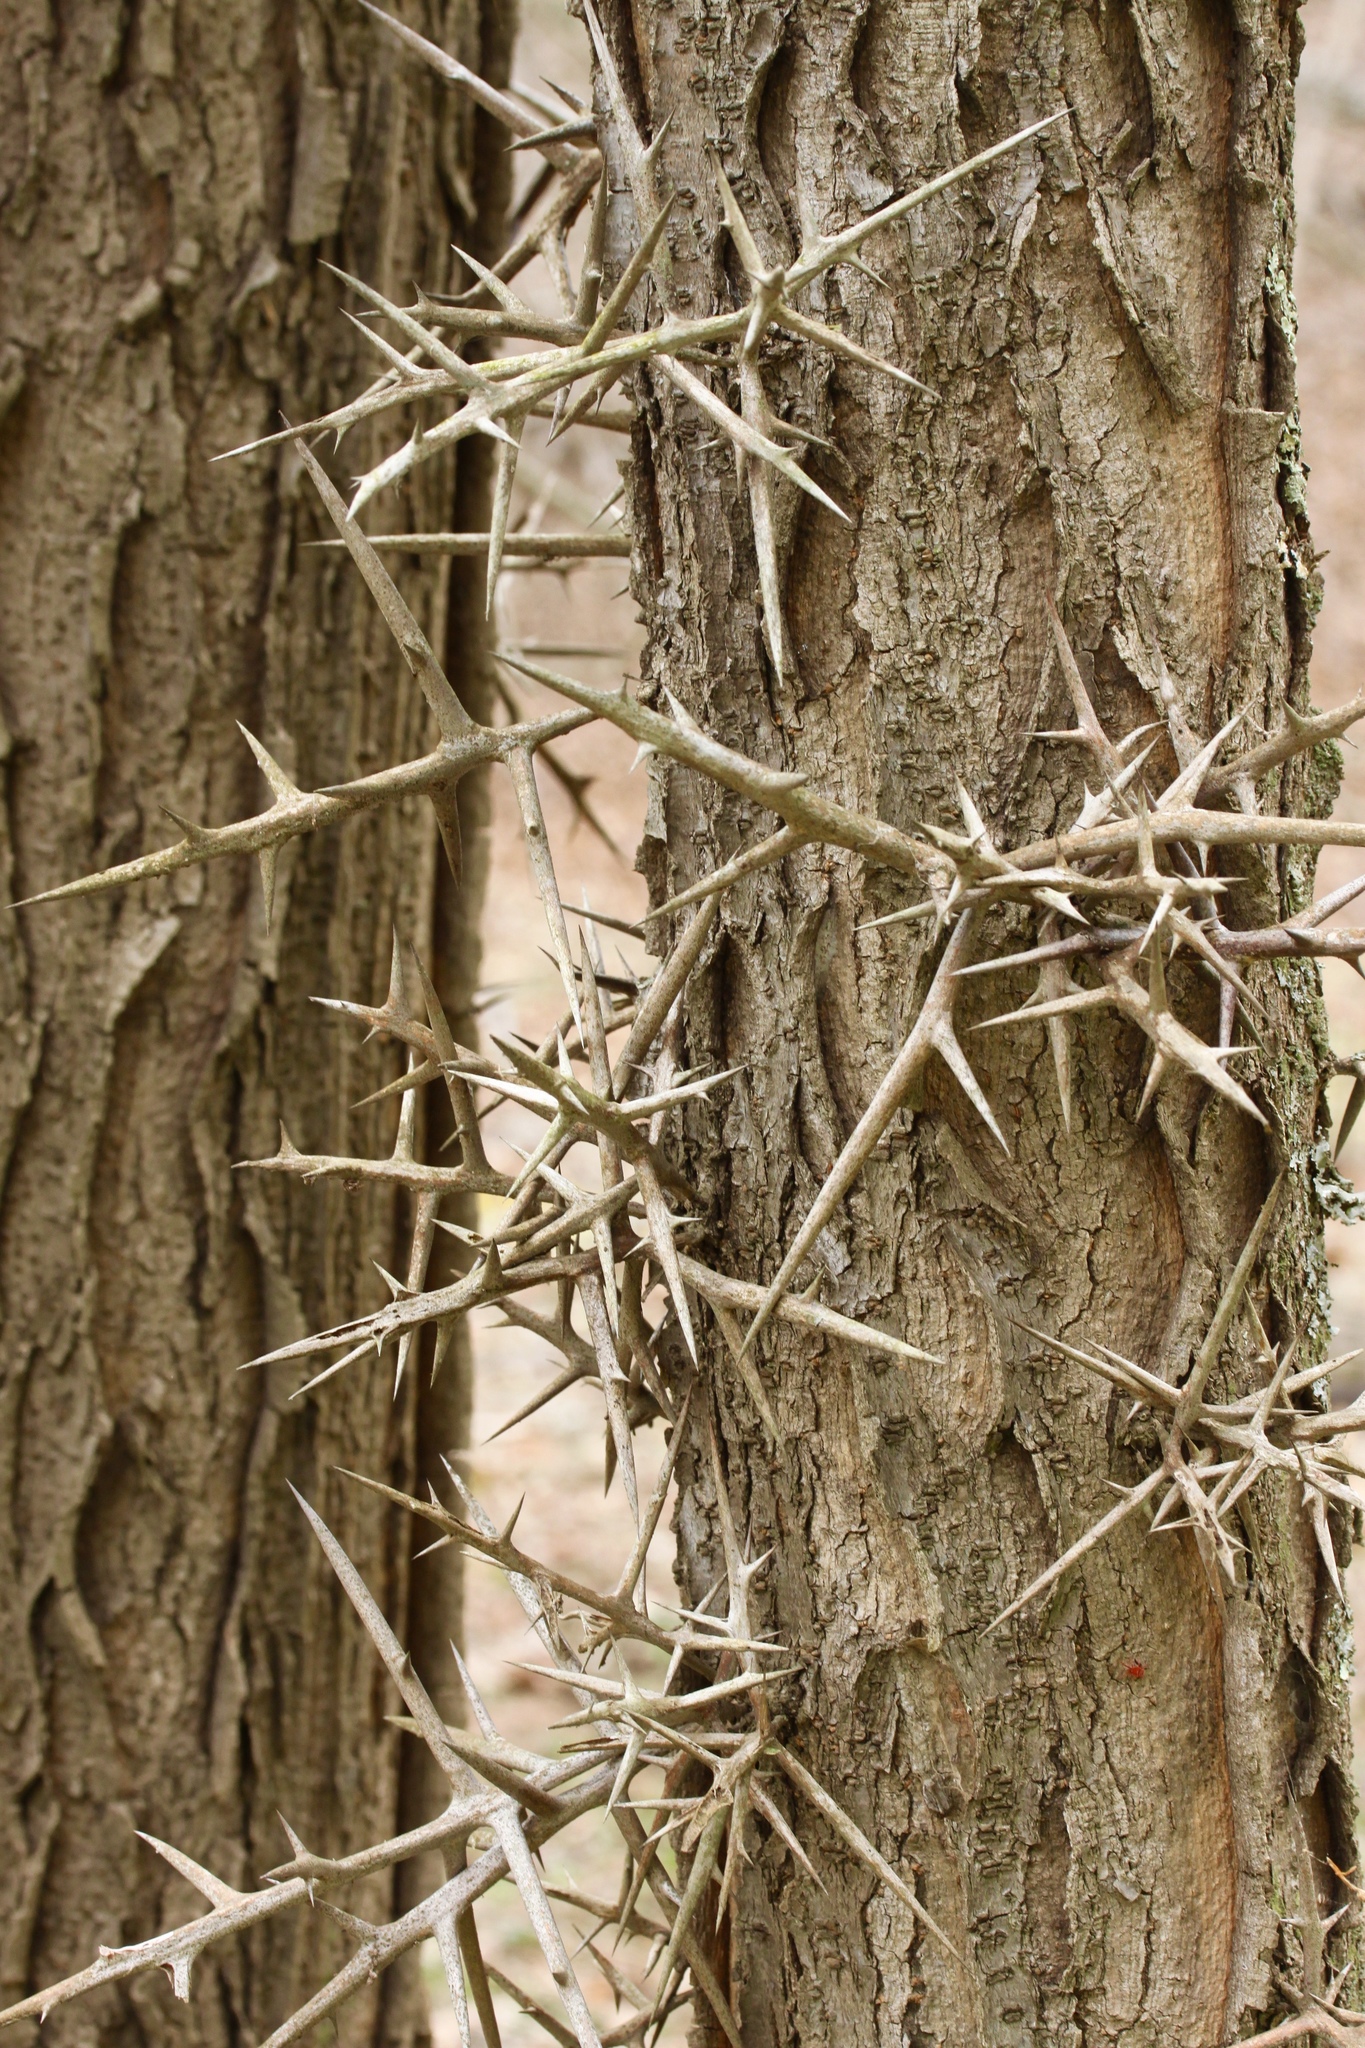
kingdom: Plantae
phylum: Tracheophyta
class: Magnoliopsida
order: Fabales
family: Fabaceae
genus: Gleditsia
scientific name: Gleditsia triacanthos
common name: Common honeylocust
